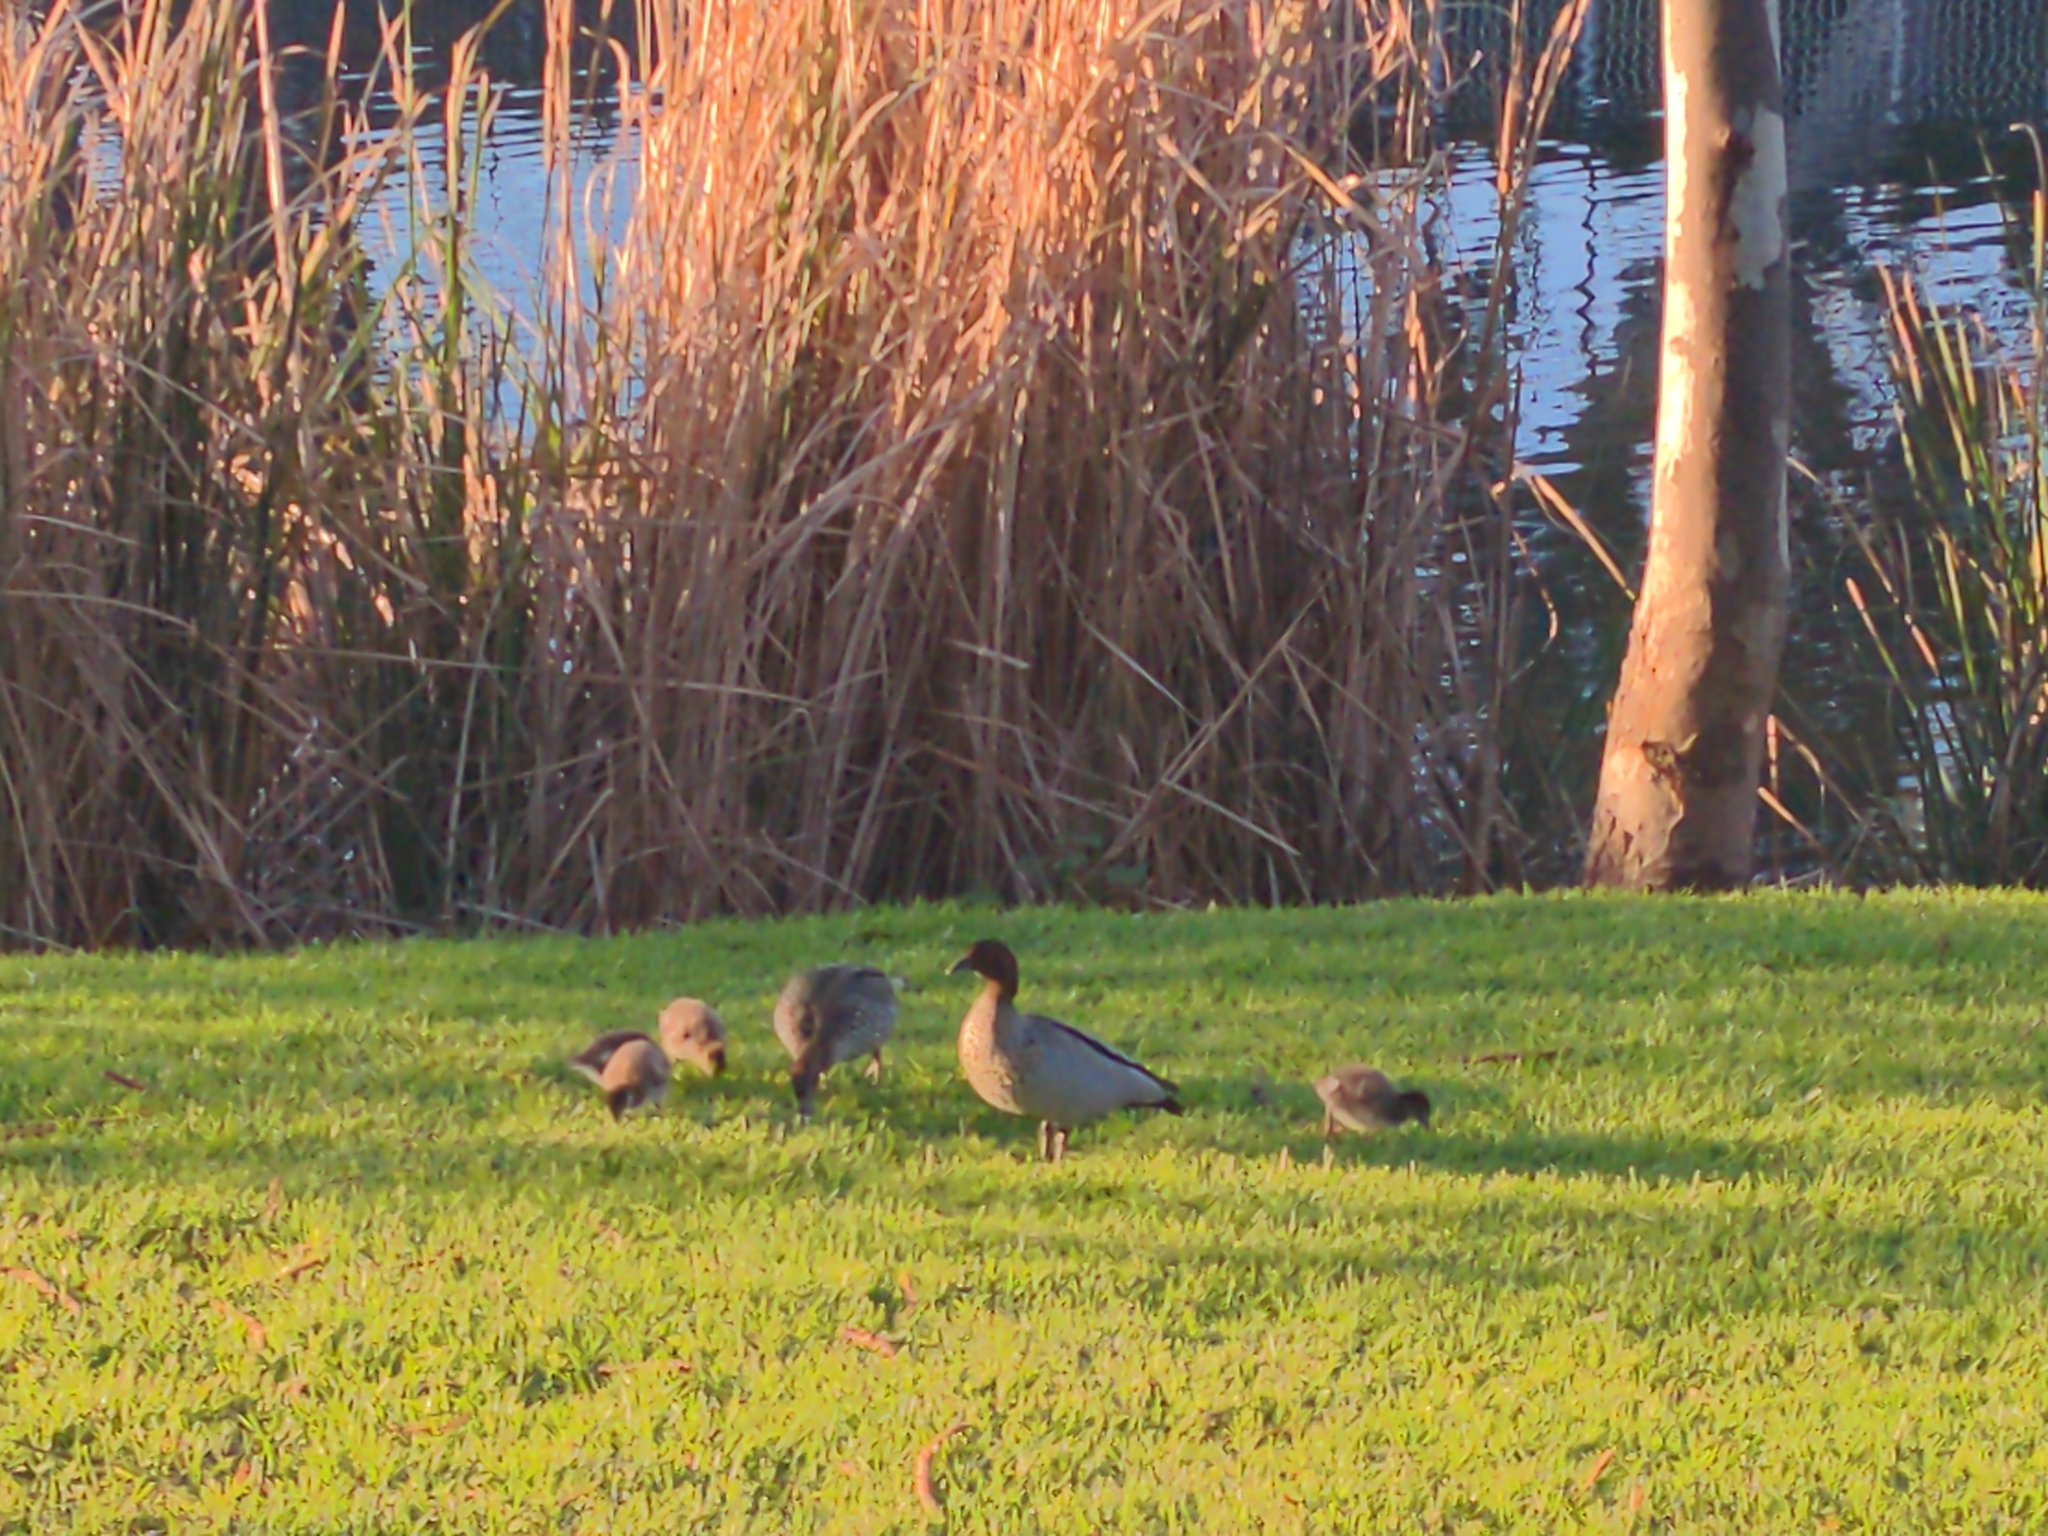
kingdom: Animalia
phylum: Chordata
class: Aves
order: Anseriformes
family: Anatidae
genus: Chenonetta
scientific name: Chenonetta jubata
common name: Maned duck
